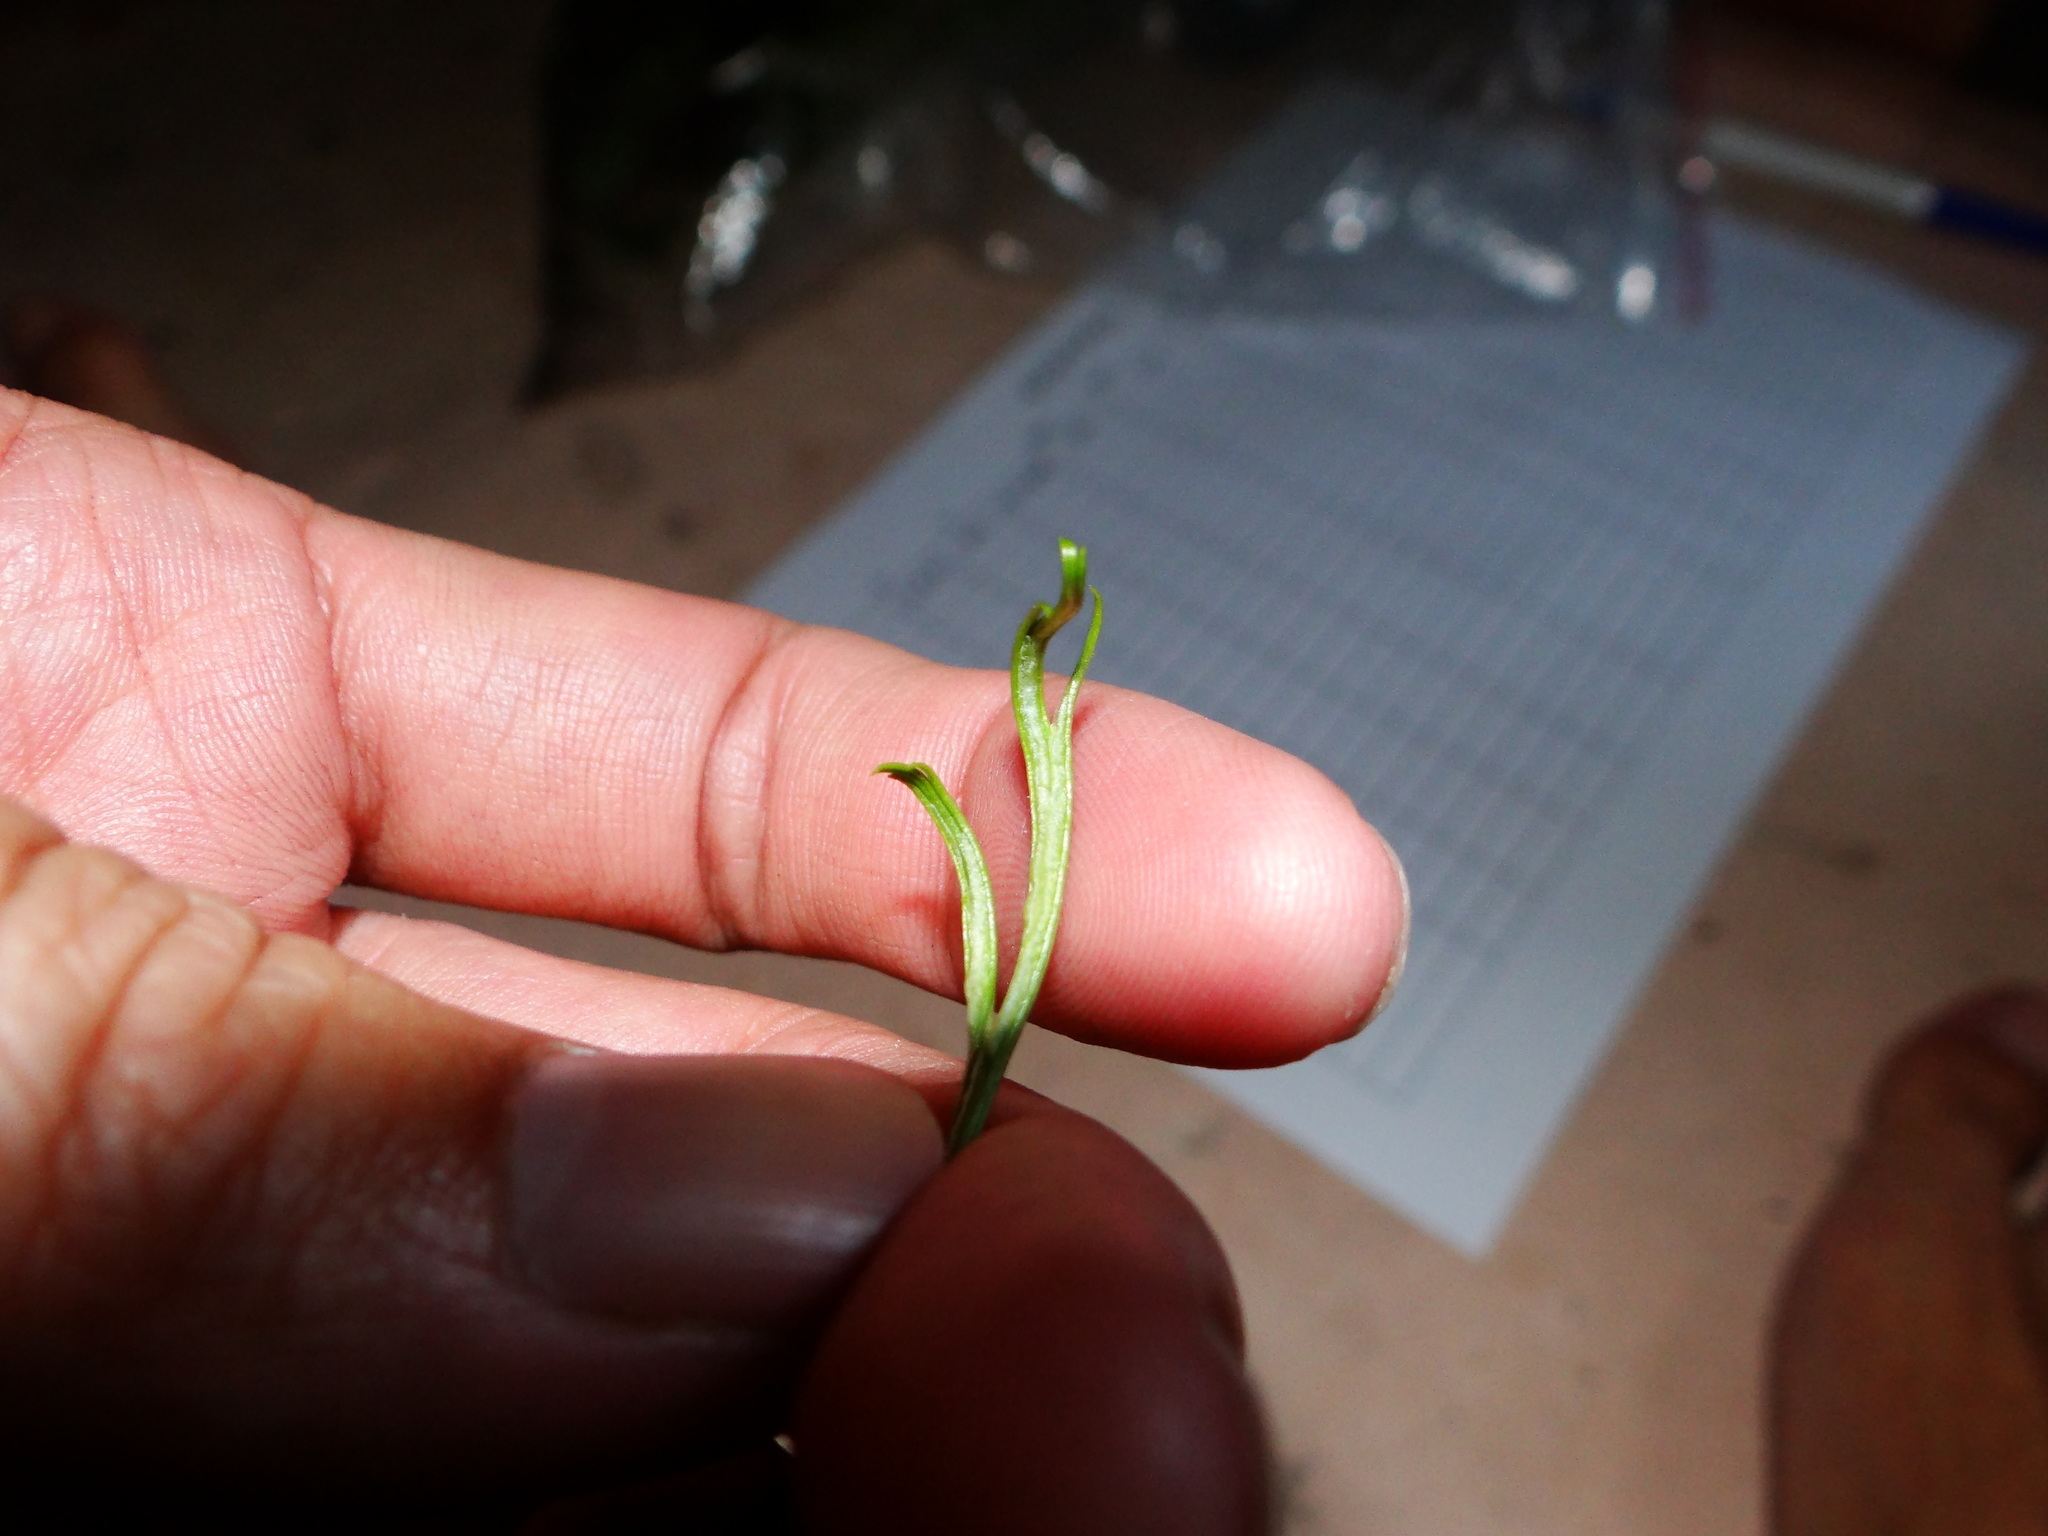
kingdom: Plantae
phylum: Tracheophyta
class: Polypodiopsida
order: Polypodiales
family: Aspleniaceae
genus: Asplenium
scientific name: Asplenium septentrionale
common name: Forked spleenwort
